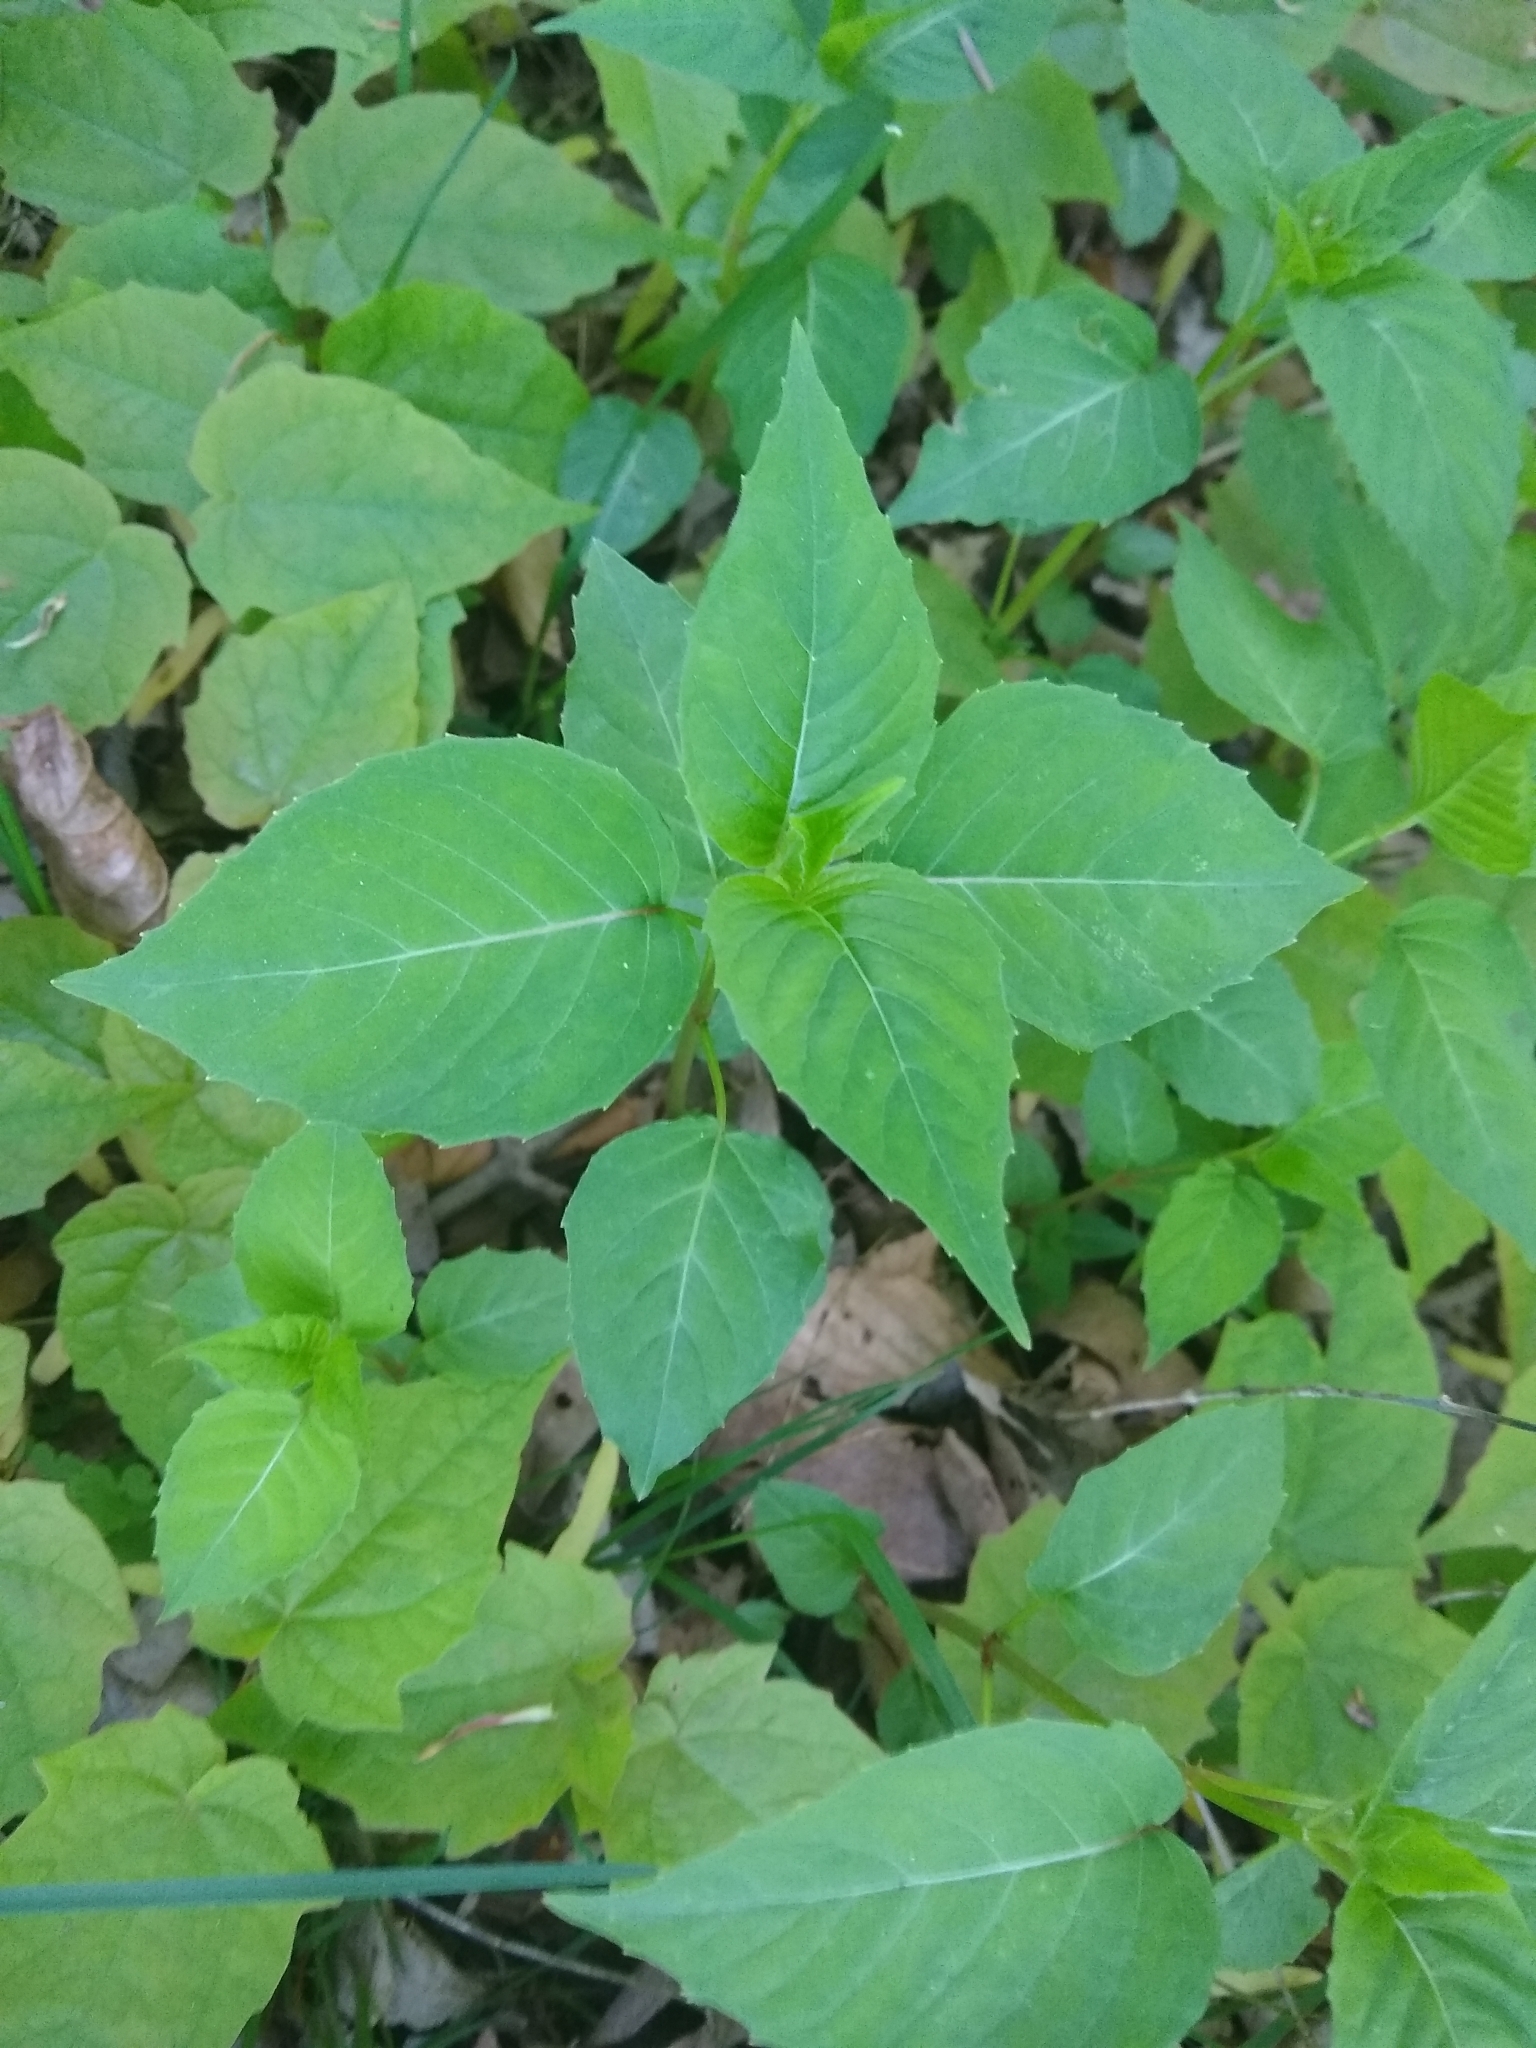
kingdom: Plantae
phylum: Tracheophyta
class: Magnoliopsida
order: Myrtales
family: Onagraceae
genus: Circaea
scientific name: Circaea canadensis
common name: Broad-leaved enchanter's nightshade
